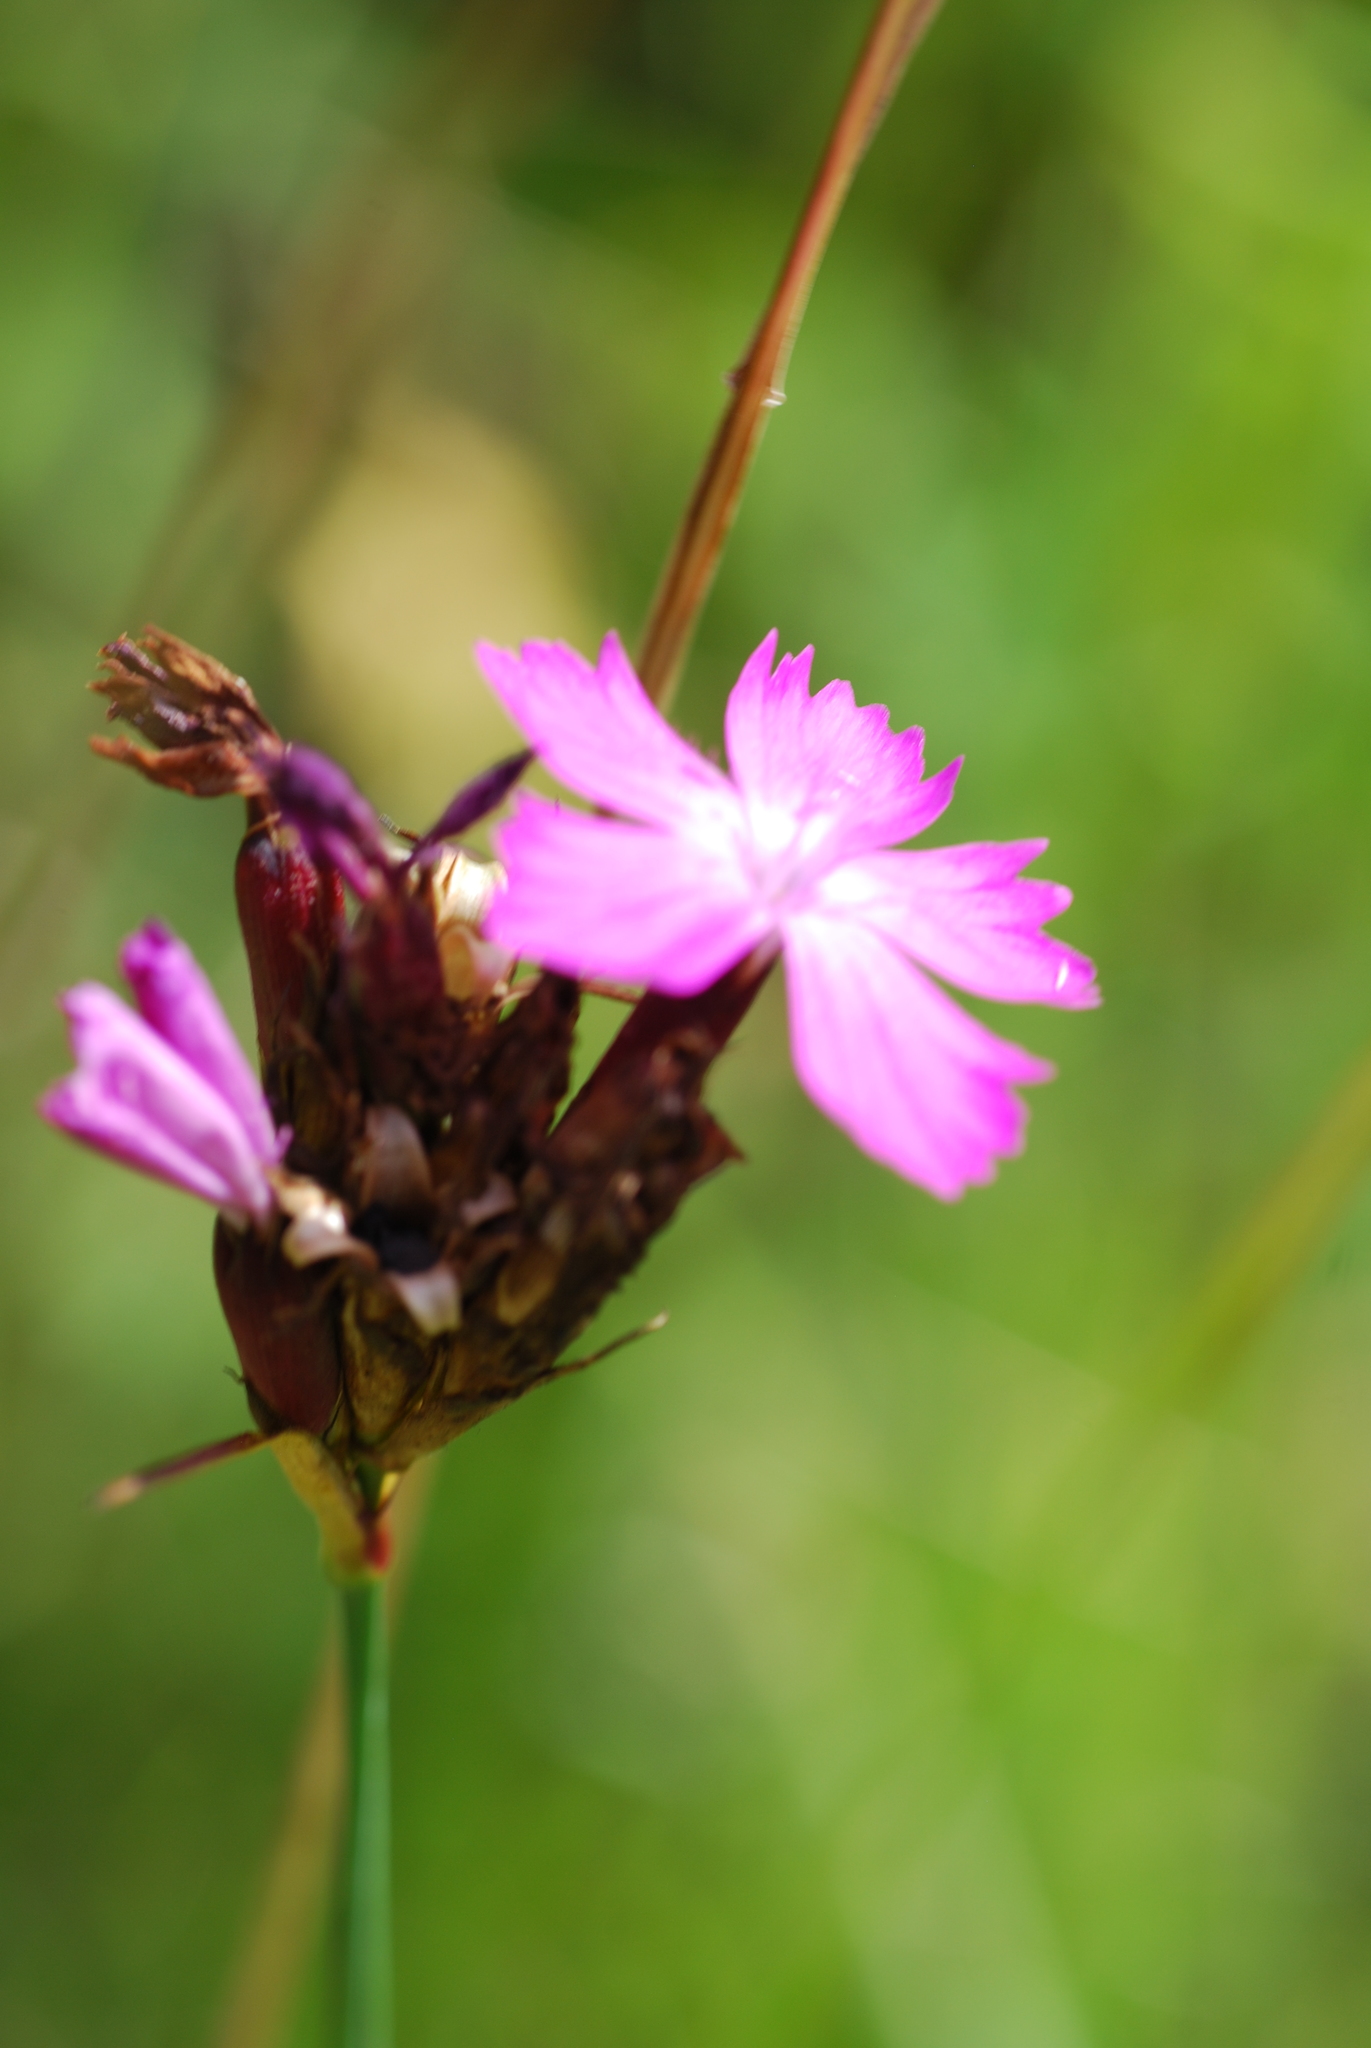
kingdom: Plantae
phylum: Tracheophyta
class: Magnoliopsida
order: Caryophyllales
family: Caryophyllaceae
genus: Dianthus
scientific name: Dianthus carthusianorum
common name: Carthusian pink
